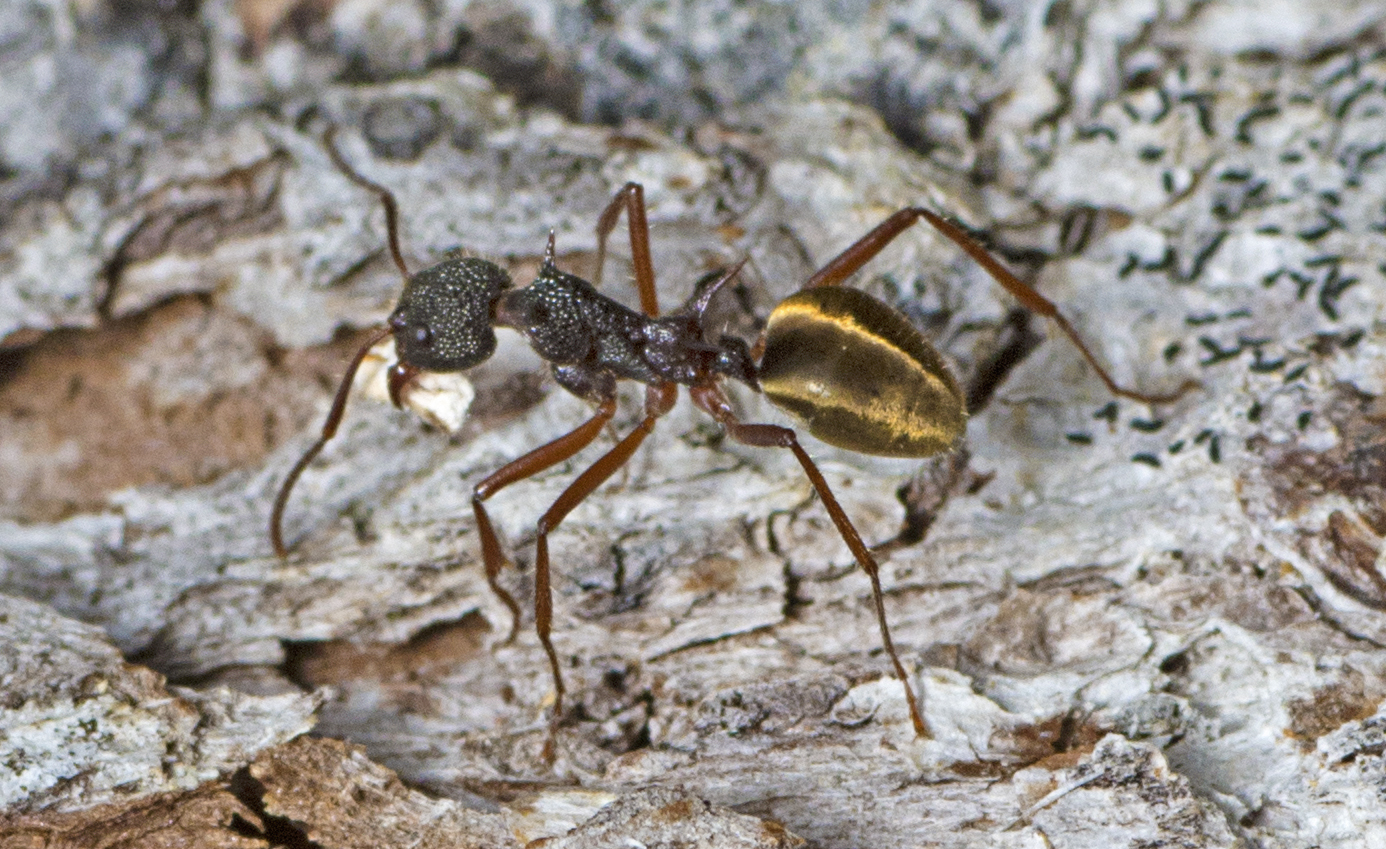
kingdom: Animalia
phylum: Arthropoda
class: Insecta
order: Hymenoptera
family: Formicidae
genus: Dolichoderus
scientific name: Dolichoderus extensispinus
